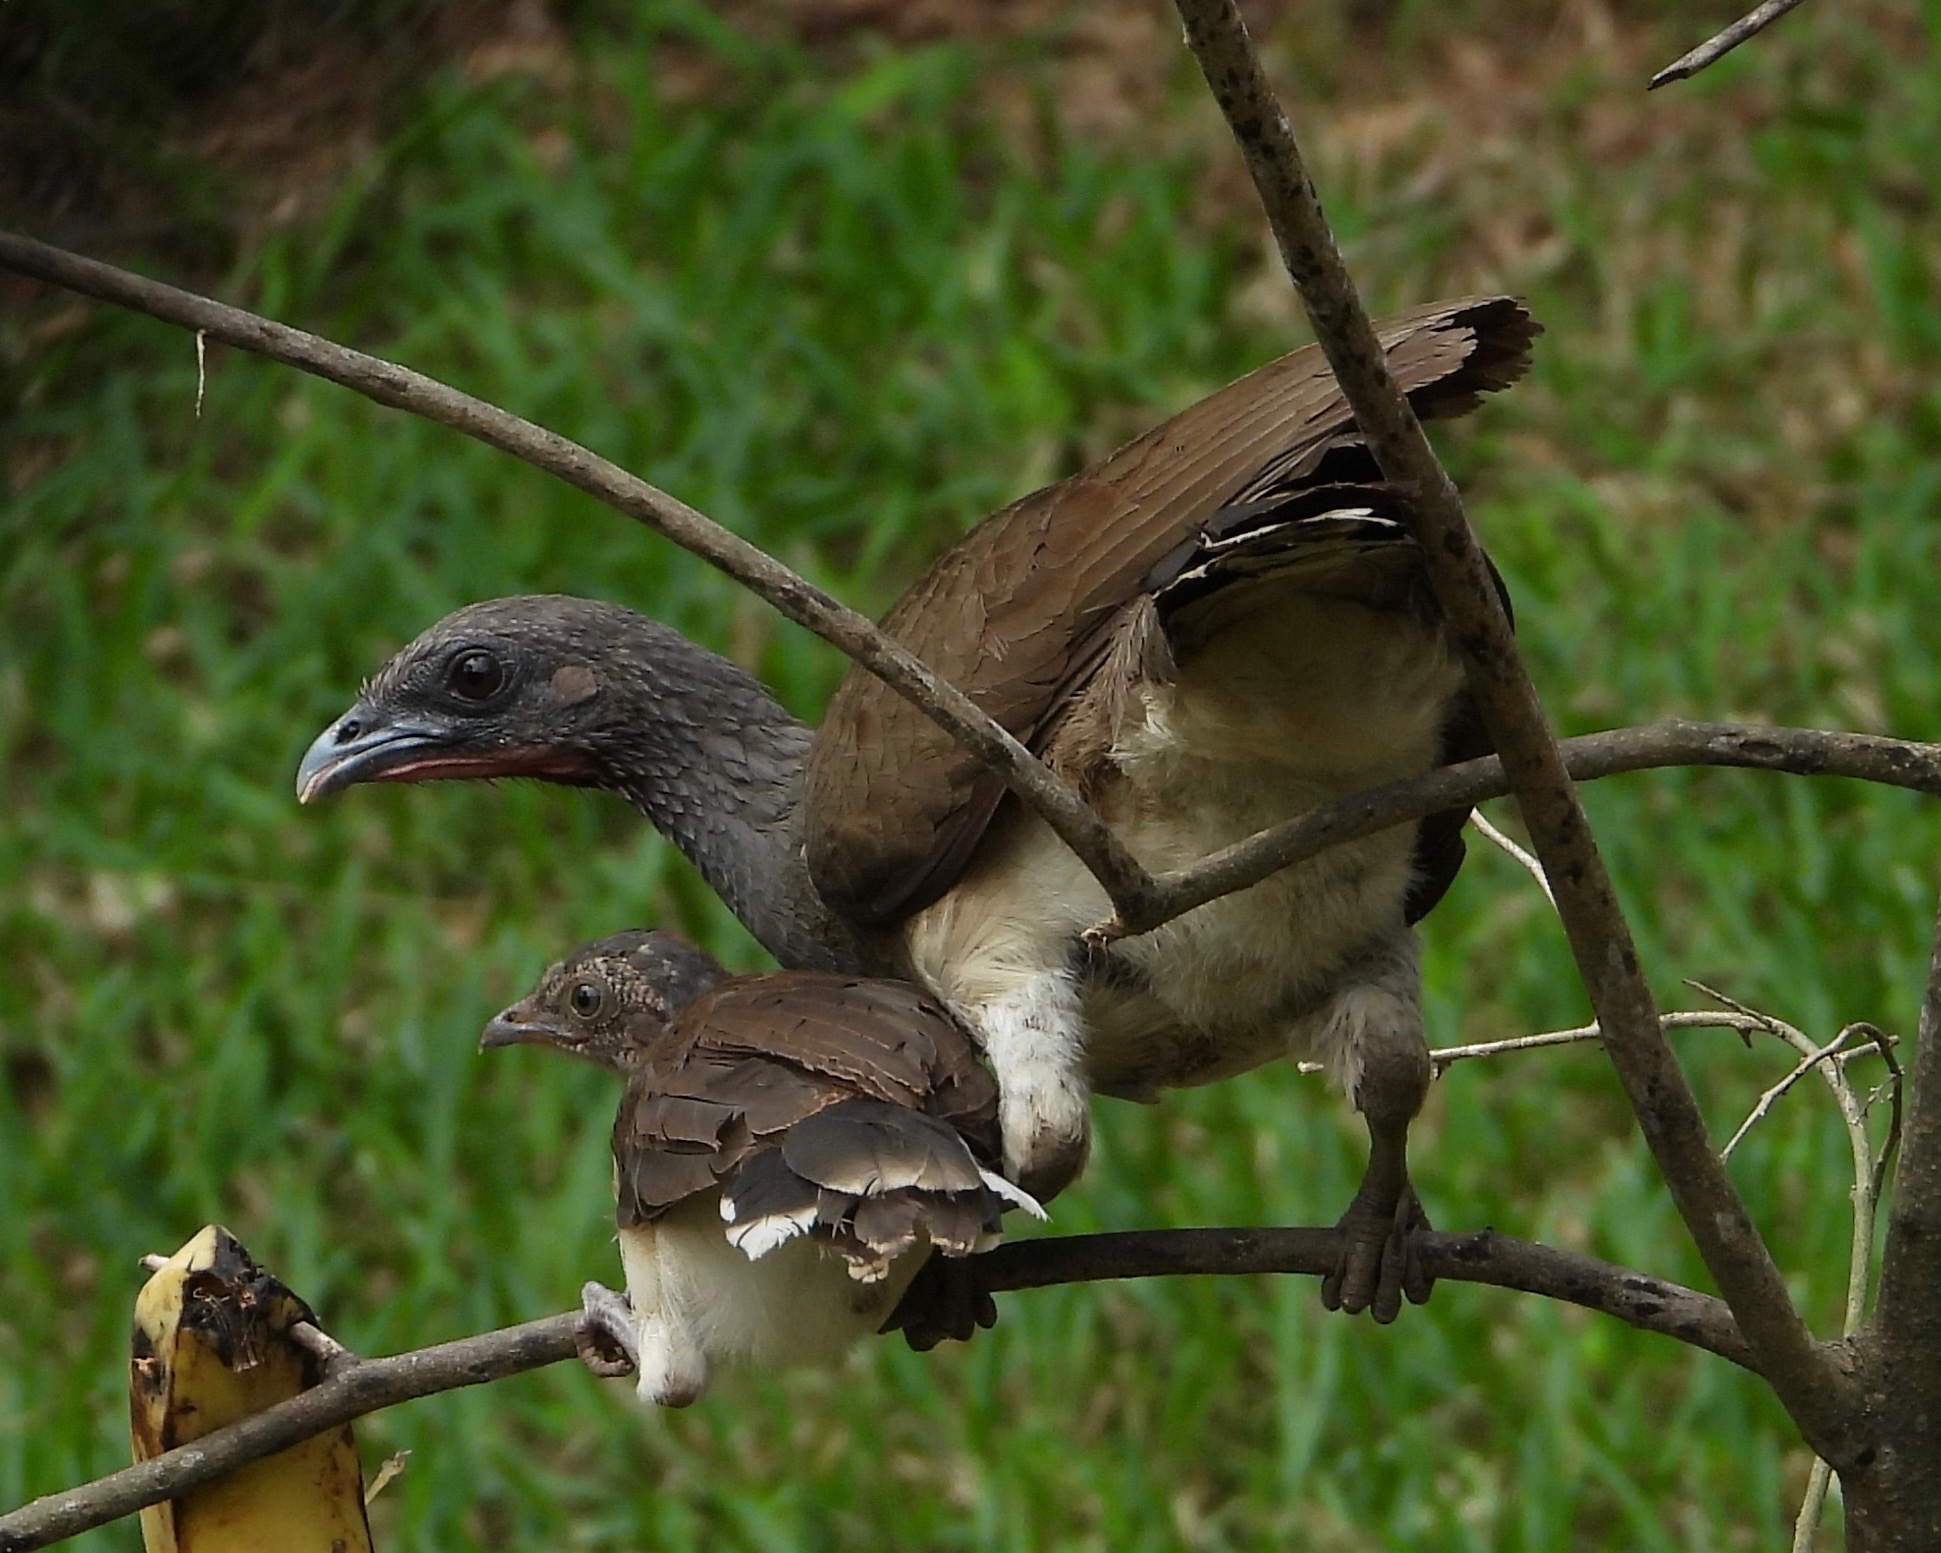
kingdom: Animalia
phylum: Chordata
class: Aves
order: Galliformes
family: Cracidae
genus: Ortalis
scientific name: Ortalis leucogastra
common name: White-bellied chachalaca
